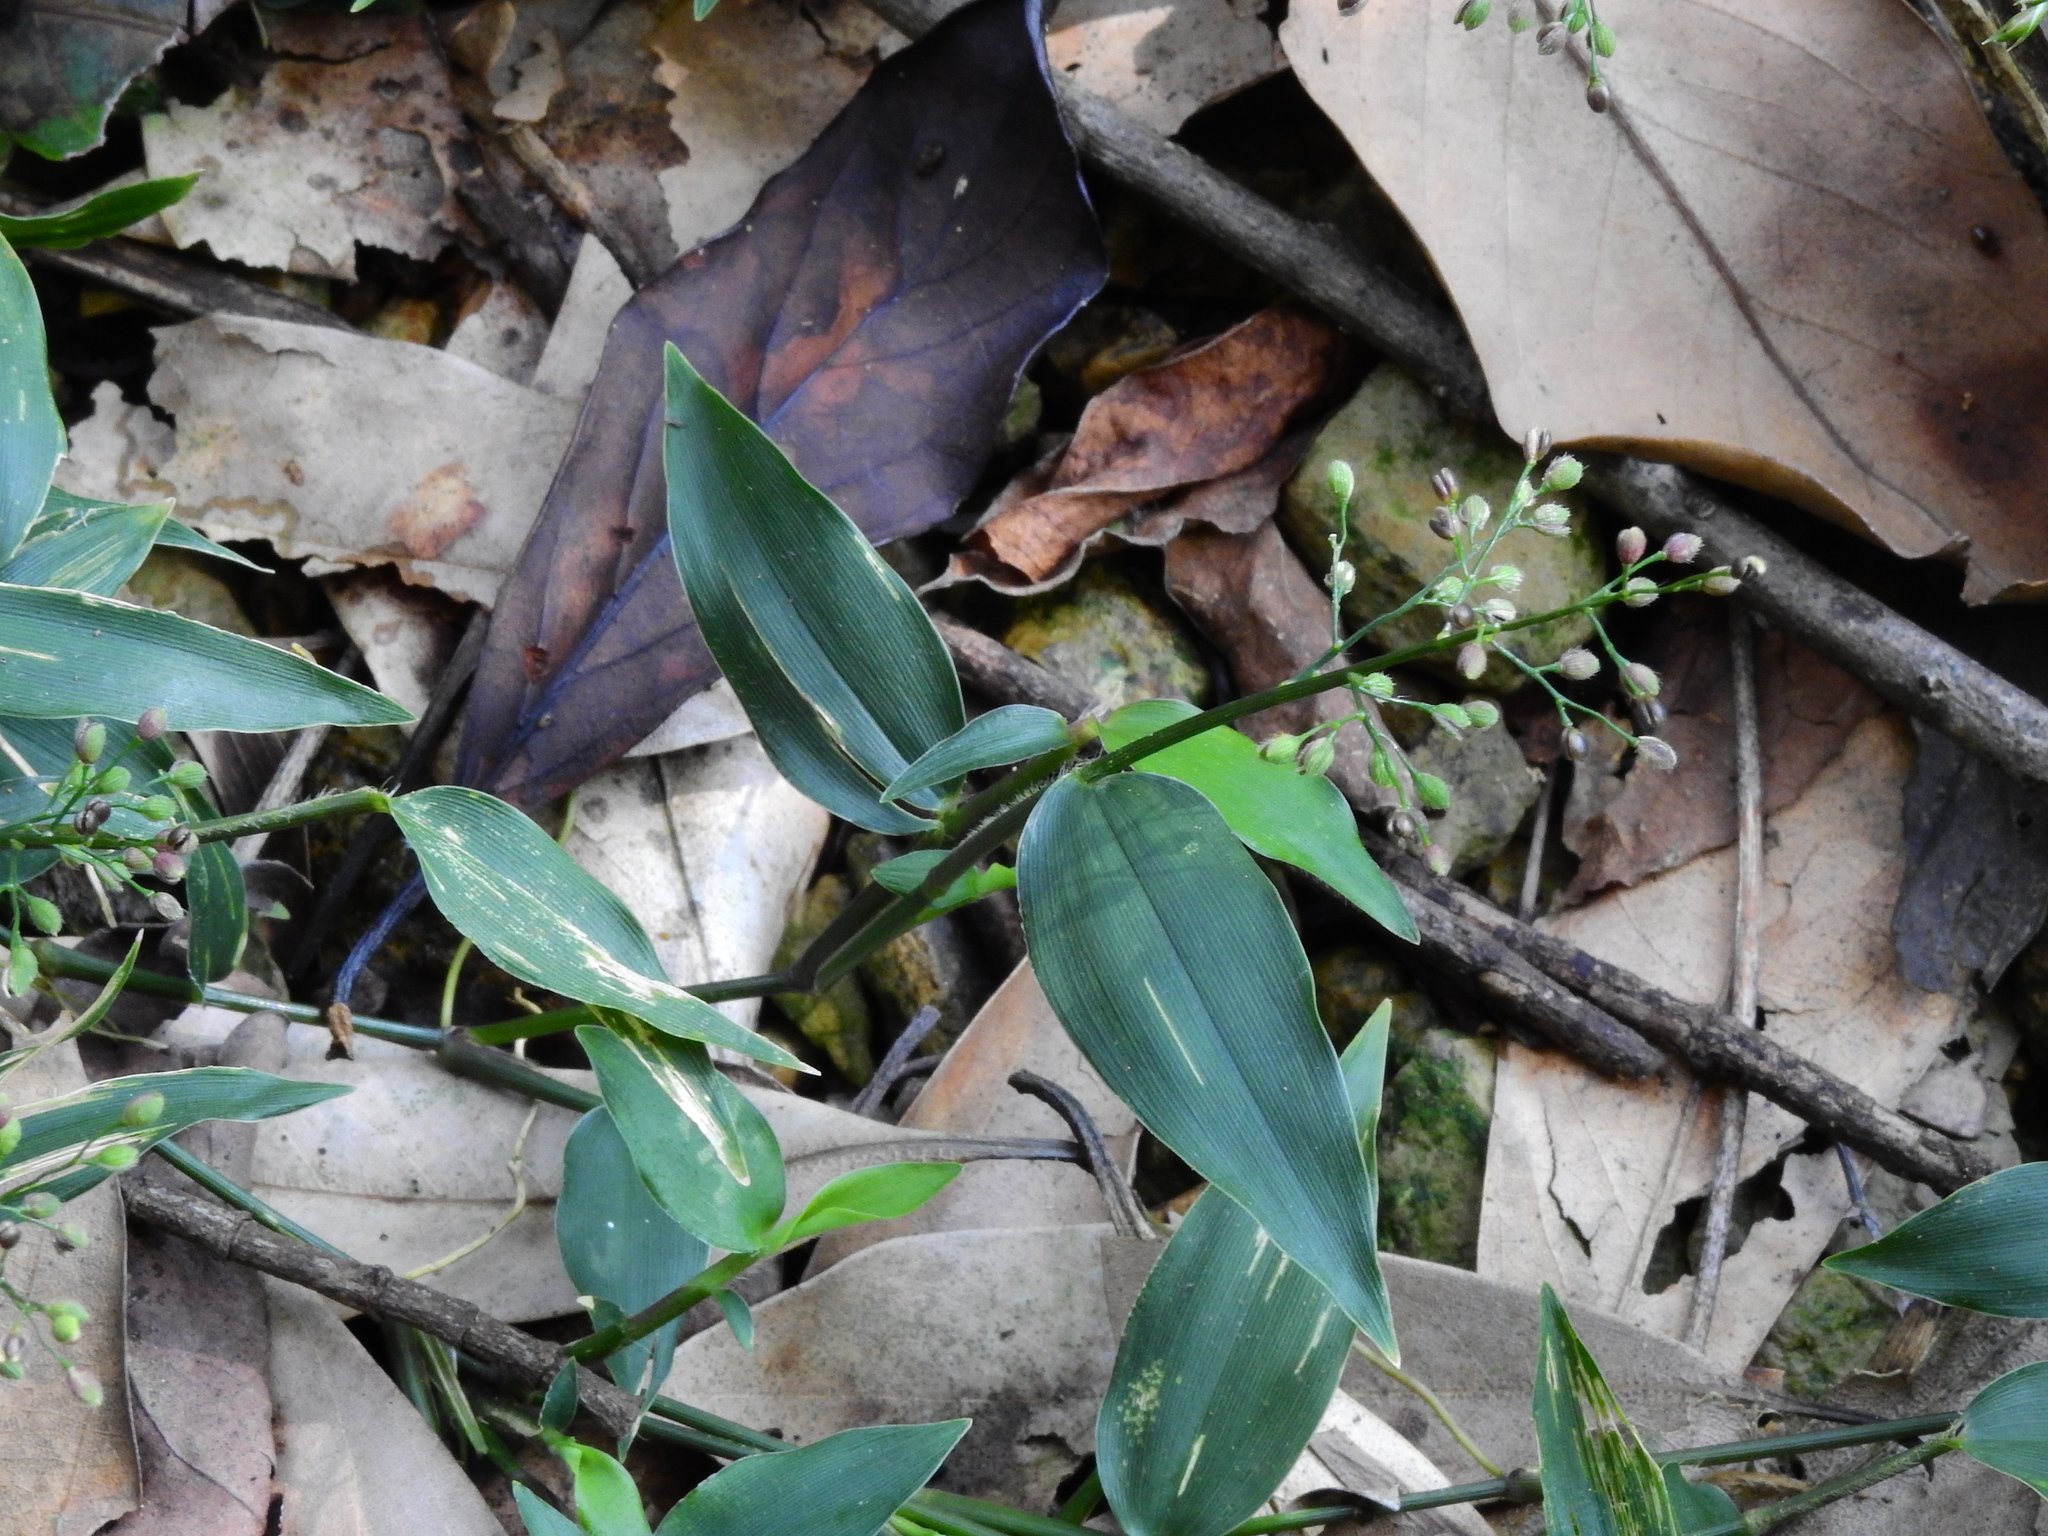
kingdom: Plantae
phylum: Tracheophyta
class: Liliopsida
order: Poales
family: Poaceae
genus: Isachne
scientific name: Isachne kunthiana
